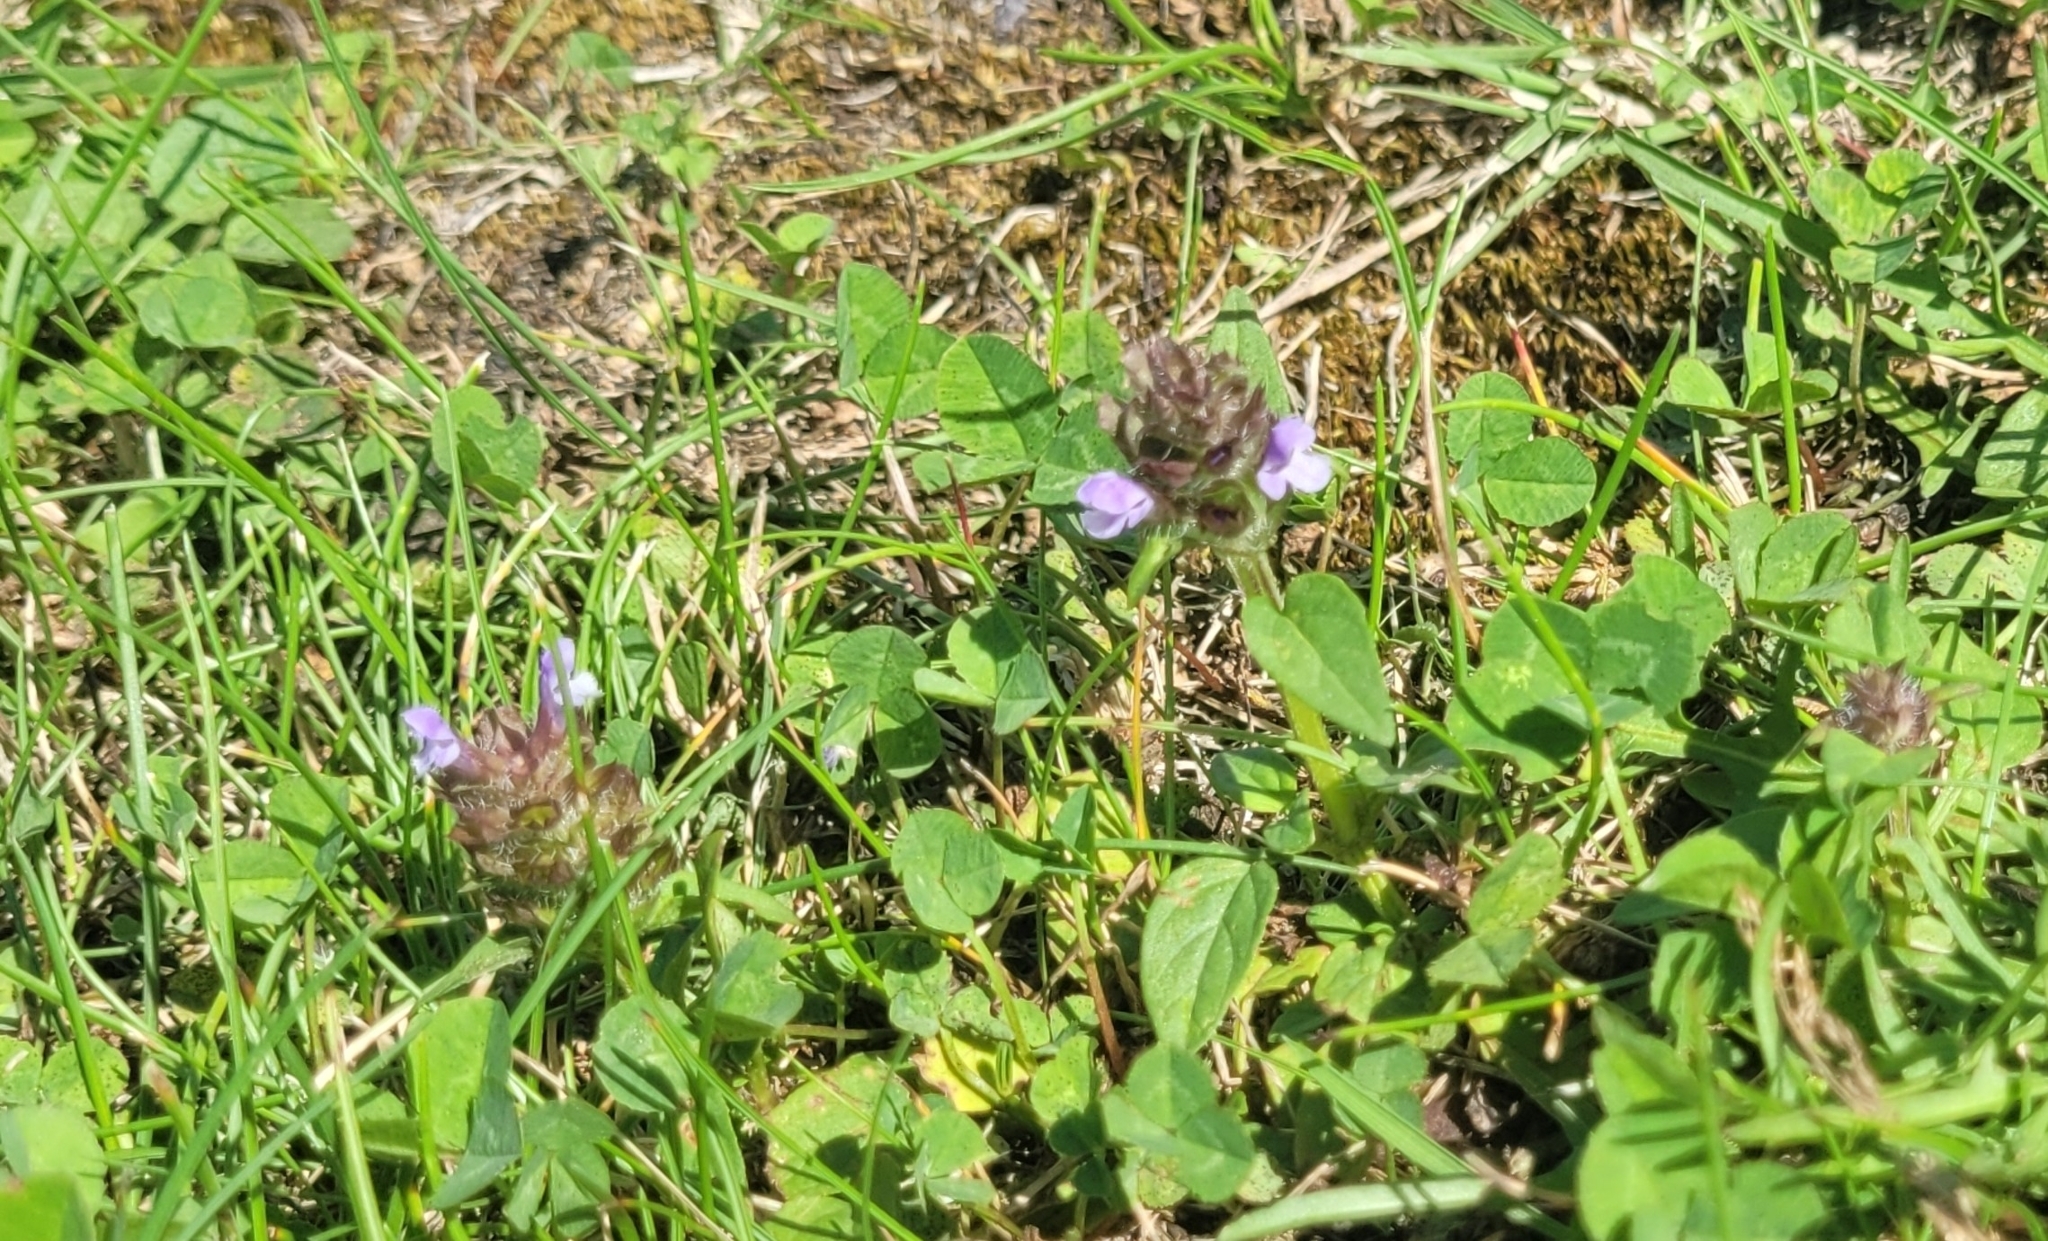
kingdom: Plantae
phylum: Tracheophyta
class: Magnoliopsida
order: Lamiales
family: Lamiaceae
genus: Prunella
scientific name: Prunella vulgaris
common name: Heal-all
